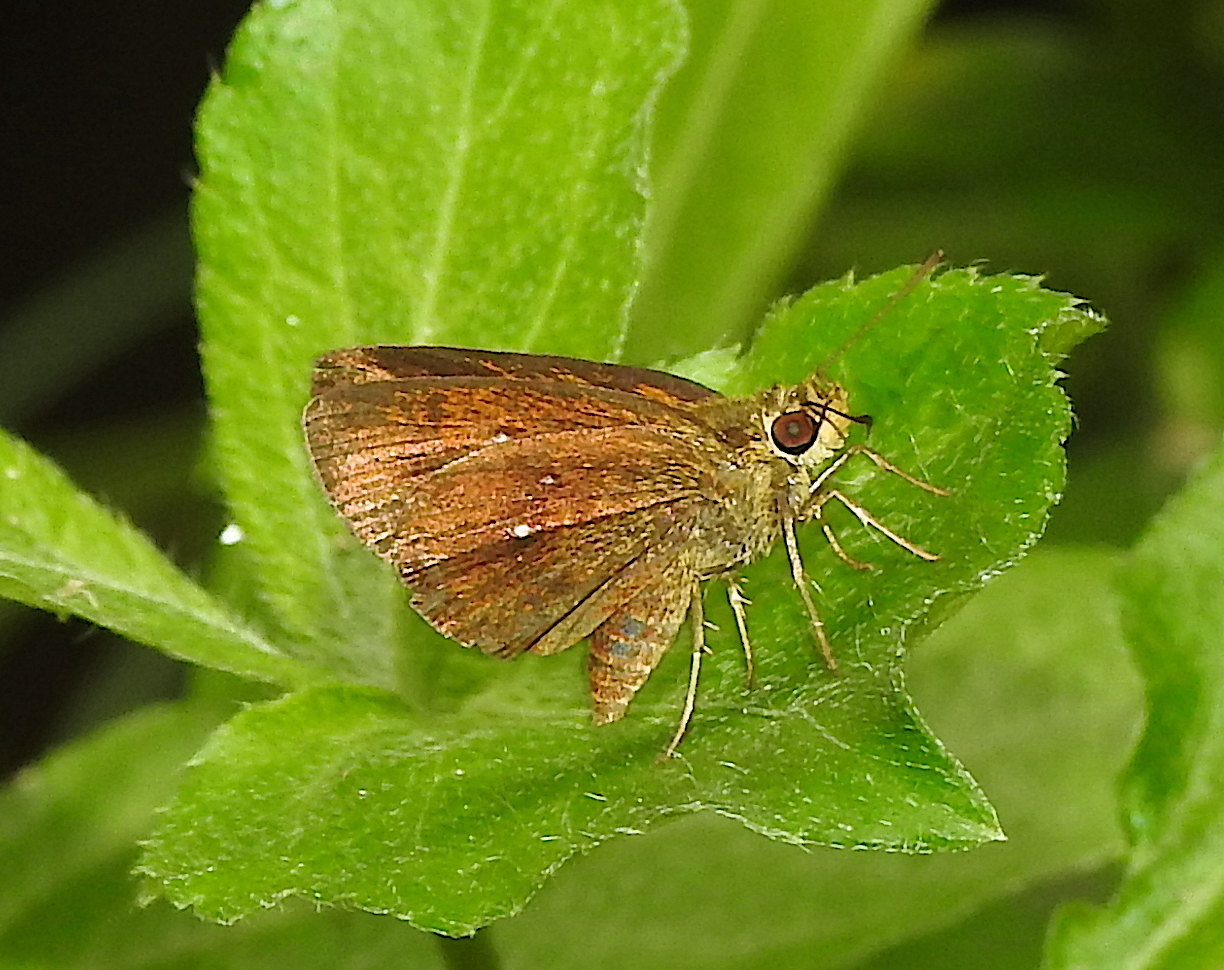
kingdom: Animalia
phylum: Arthropoda
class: Insecta
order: Lepidoptera
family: Hesperiidae
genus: Iambrix
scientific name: Iambrix salsala
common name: Chestnut bob
